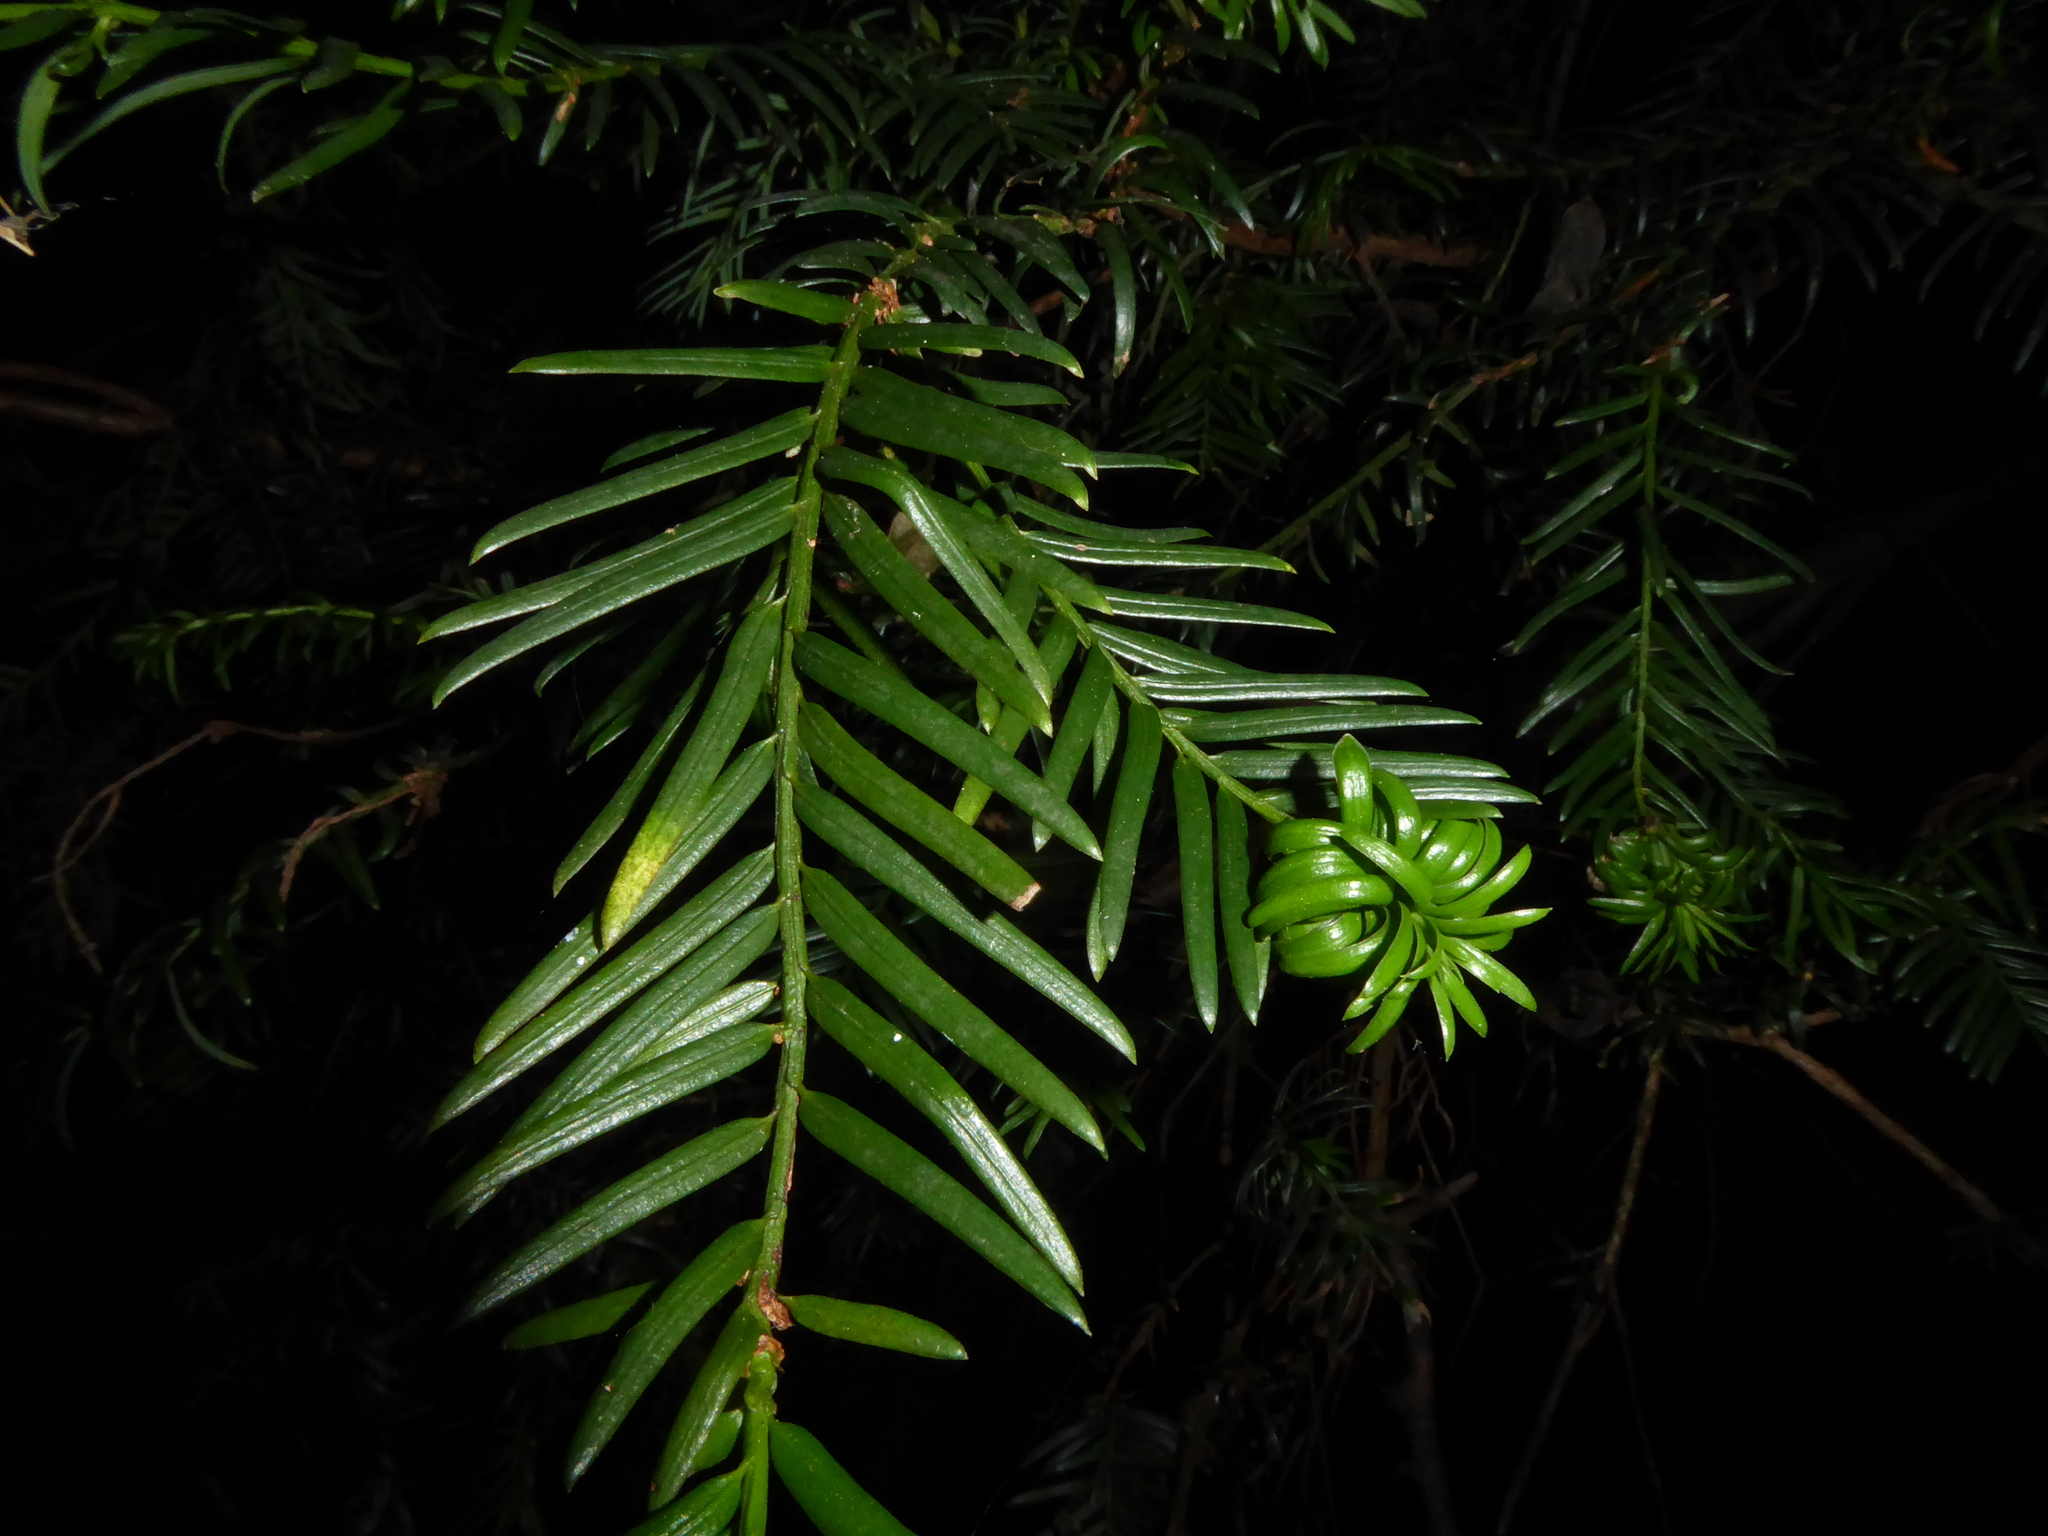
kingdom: Plantae
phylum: Tracheophyta
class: Pinopsida
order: Pinales
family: Taxaceae
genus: Taxus
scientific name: Taxus baccata
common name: Yew
